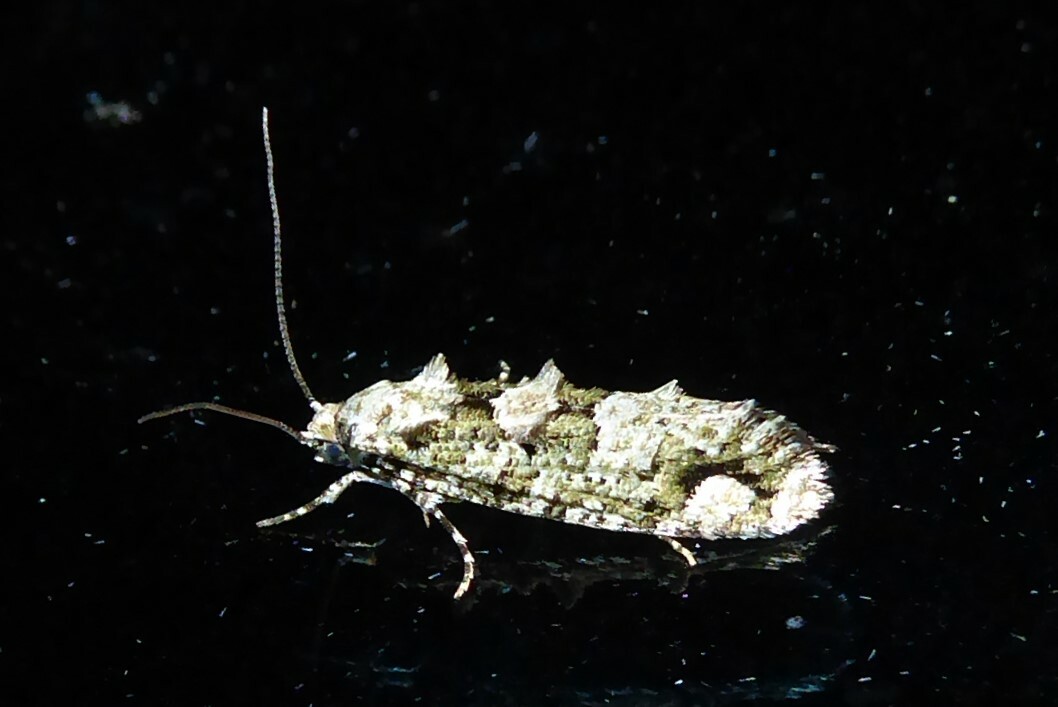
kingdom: Animalia
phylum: Arthropoda
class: Insecta
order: Lepidoptera
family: Tineidae
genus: Lysiphragma
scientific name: Lysiphragma howesii
